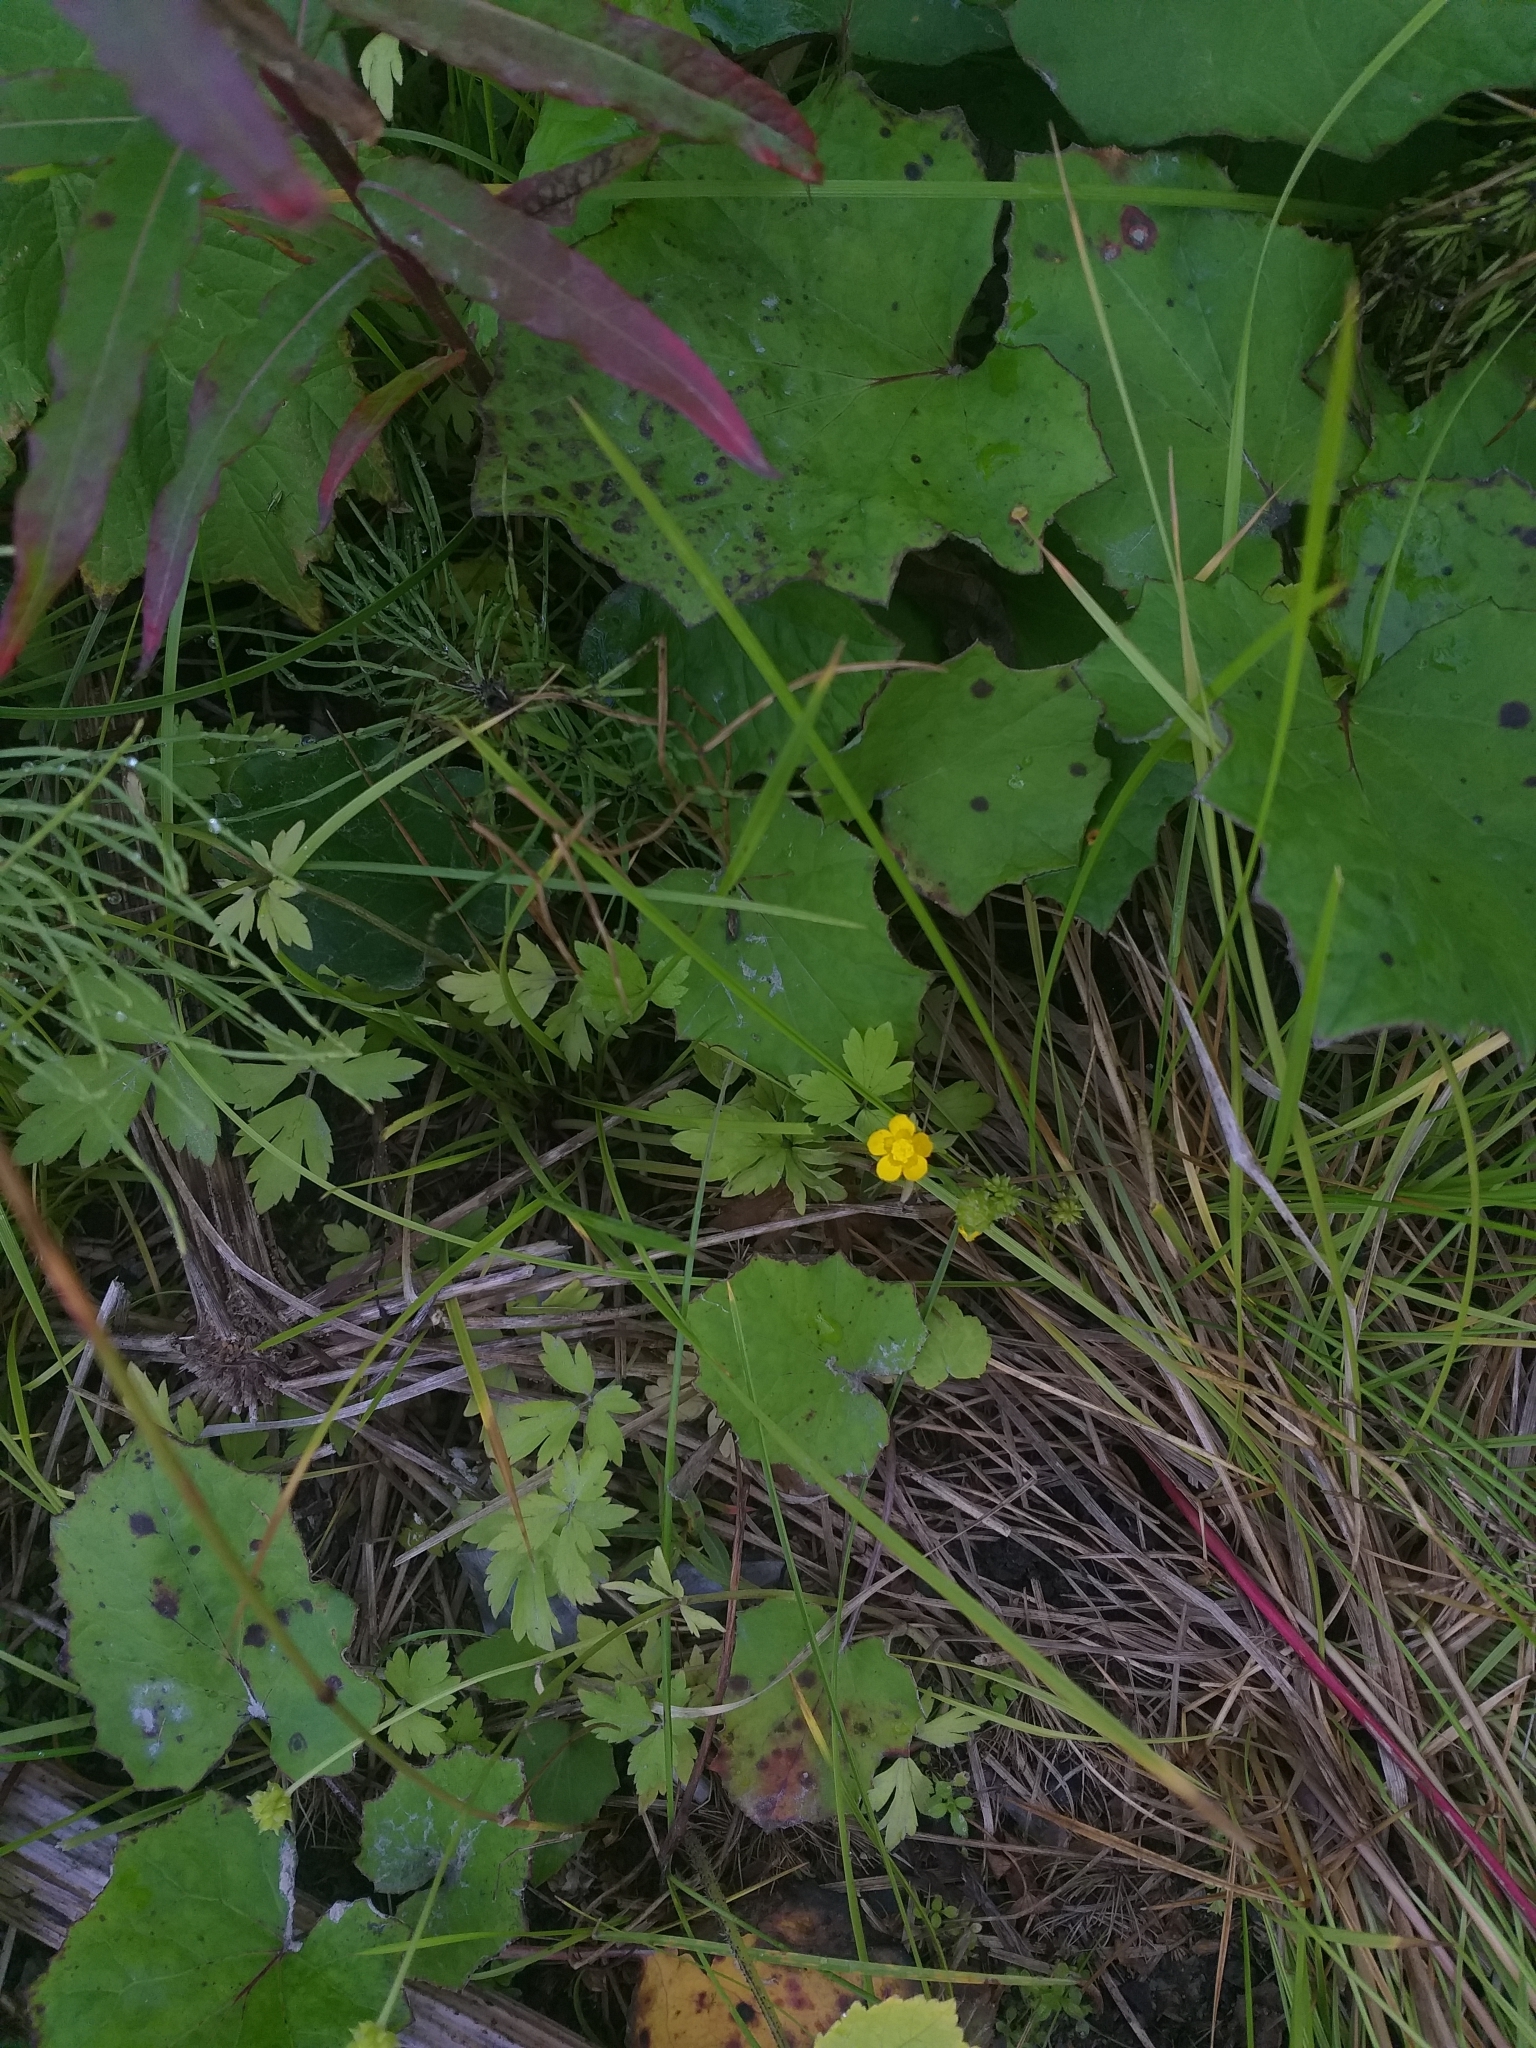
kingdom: Plantae
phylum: Tracheophyta
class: Magnoliopsida
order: Ranunculales
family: Ranunculaceae
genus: Ranunculus
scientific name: Ranunculus repens
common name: Creeping buttercup
